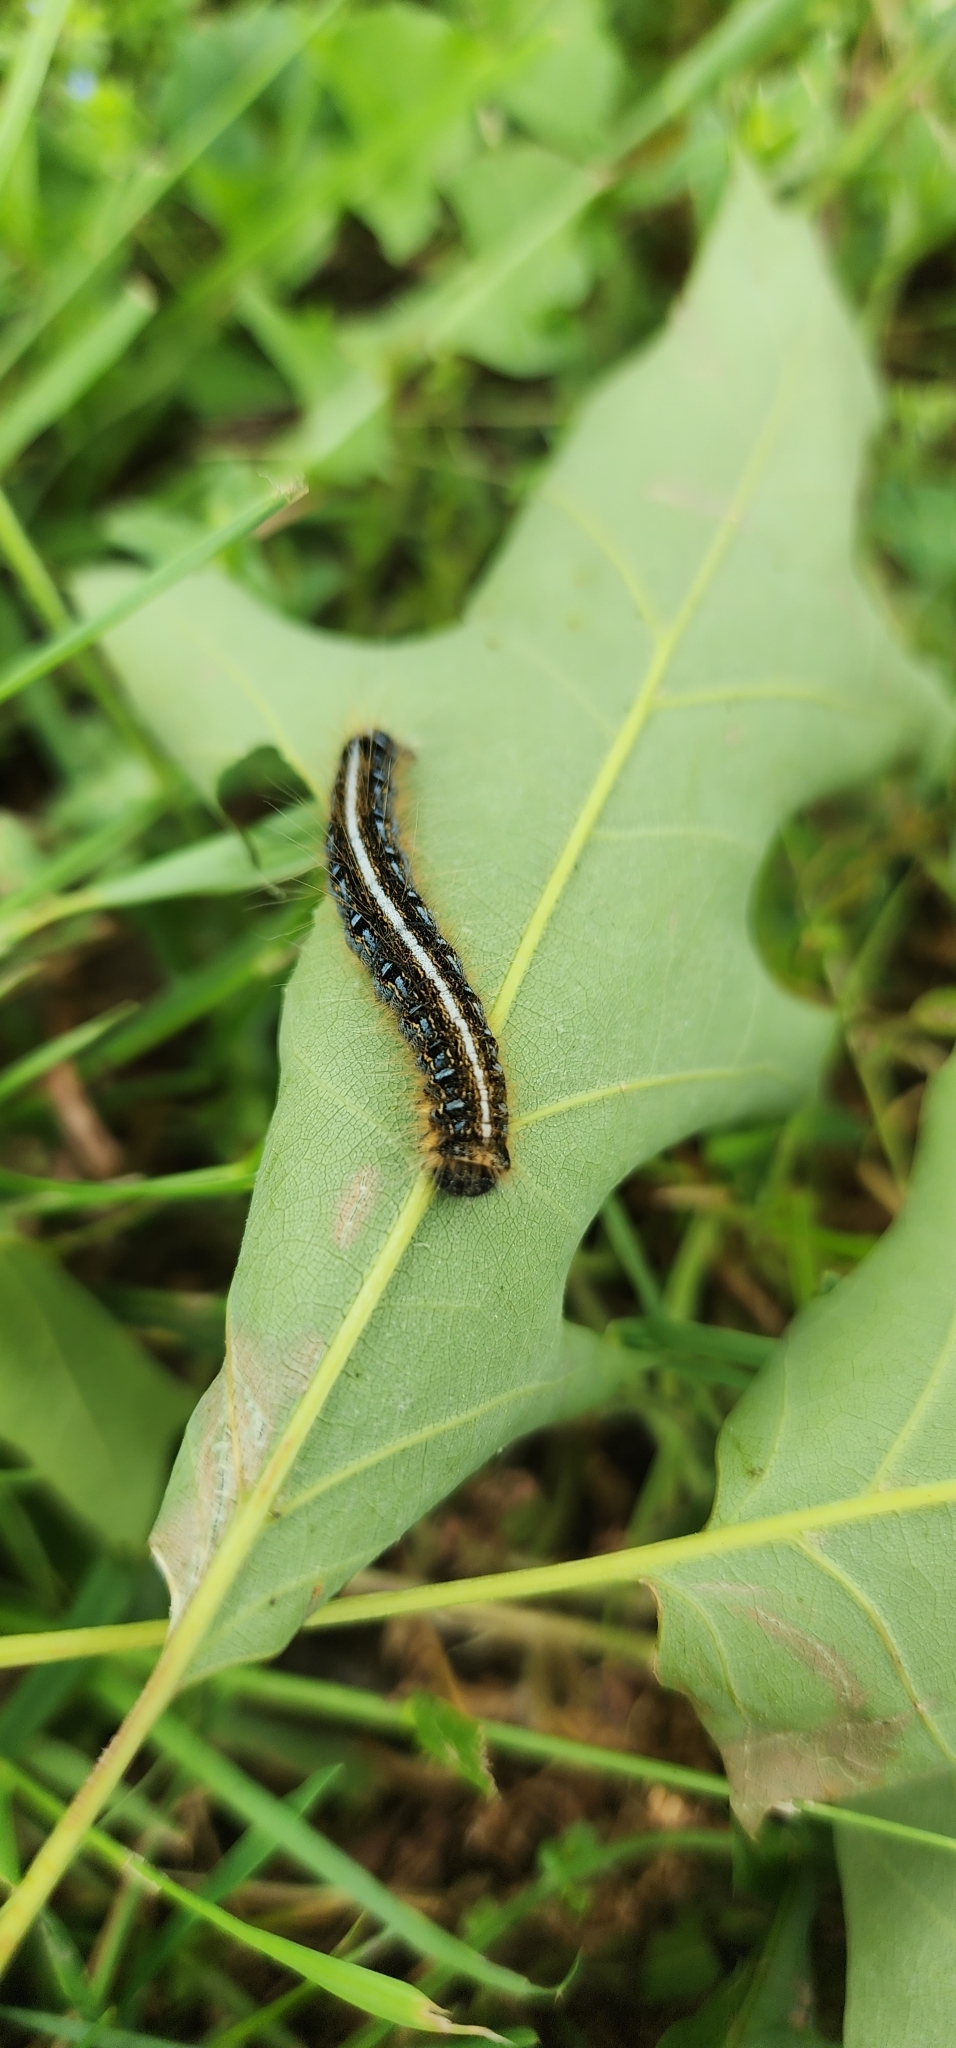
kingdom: Animalia
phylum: Arthropoda
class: Insecta
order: Lepidoptera
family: Lasiocampidae
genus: Malacosoma
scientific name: Malacosoma americana
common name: Eastern tent caterpillar moth
